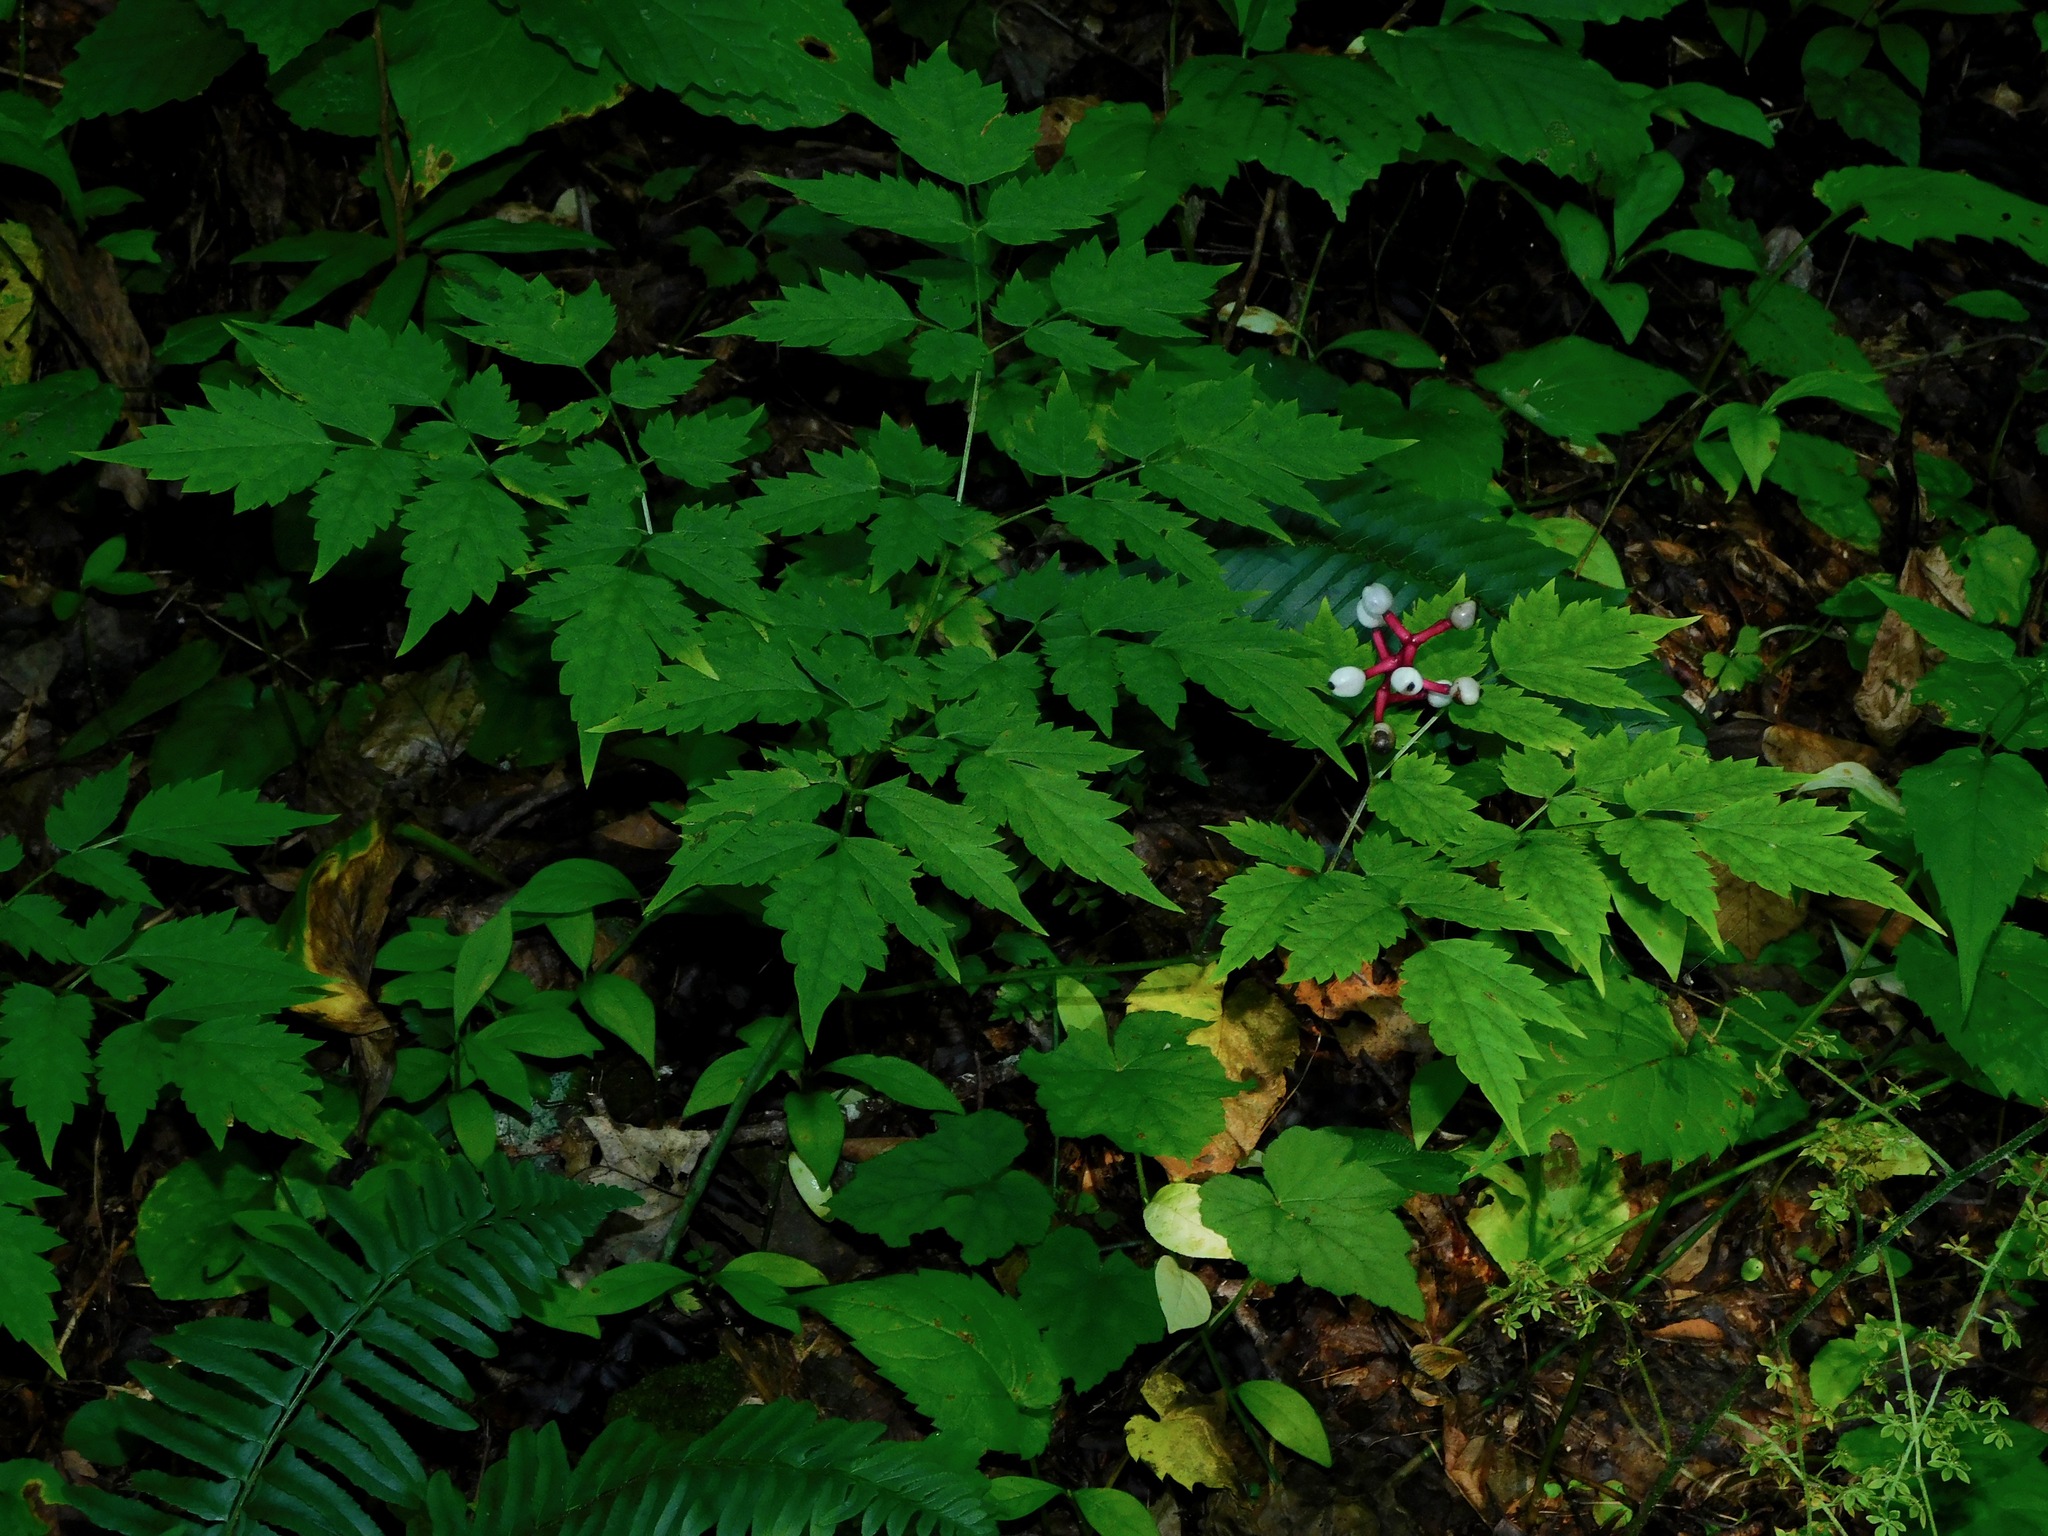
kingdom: Plantae
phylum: Tracheophyta
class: Magnoliopsida
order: Ranunculales
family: Ranunculaceae
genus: Actaea
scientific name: Actaea pachypoda
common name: Doll's-eyes
